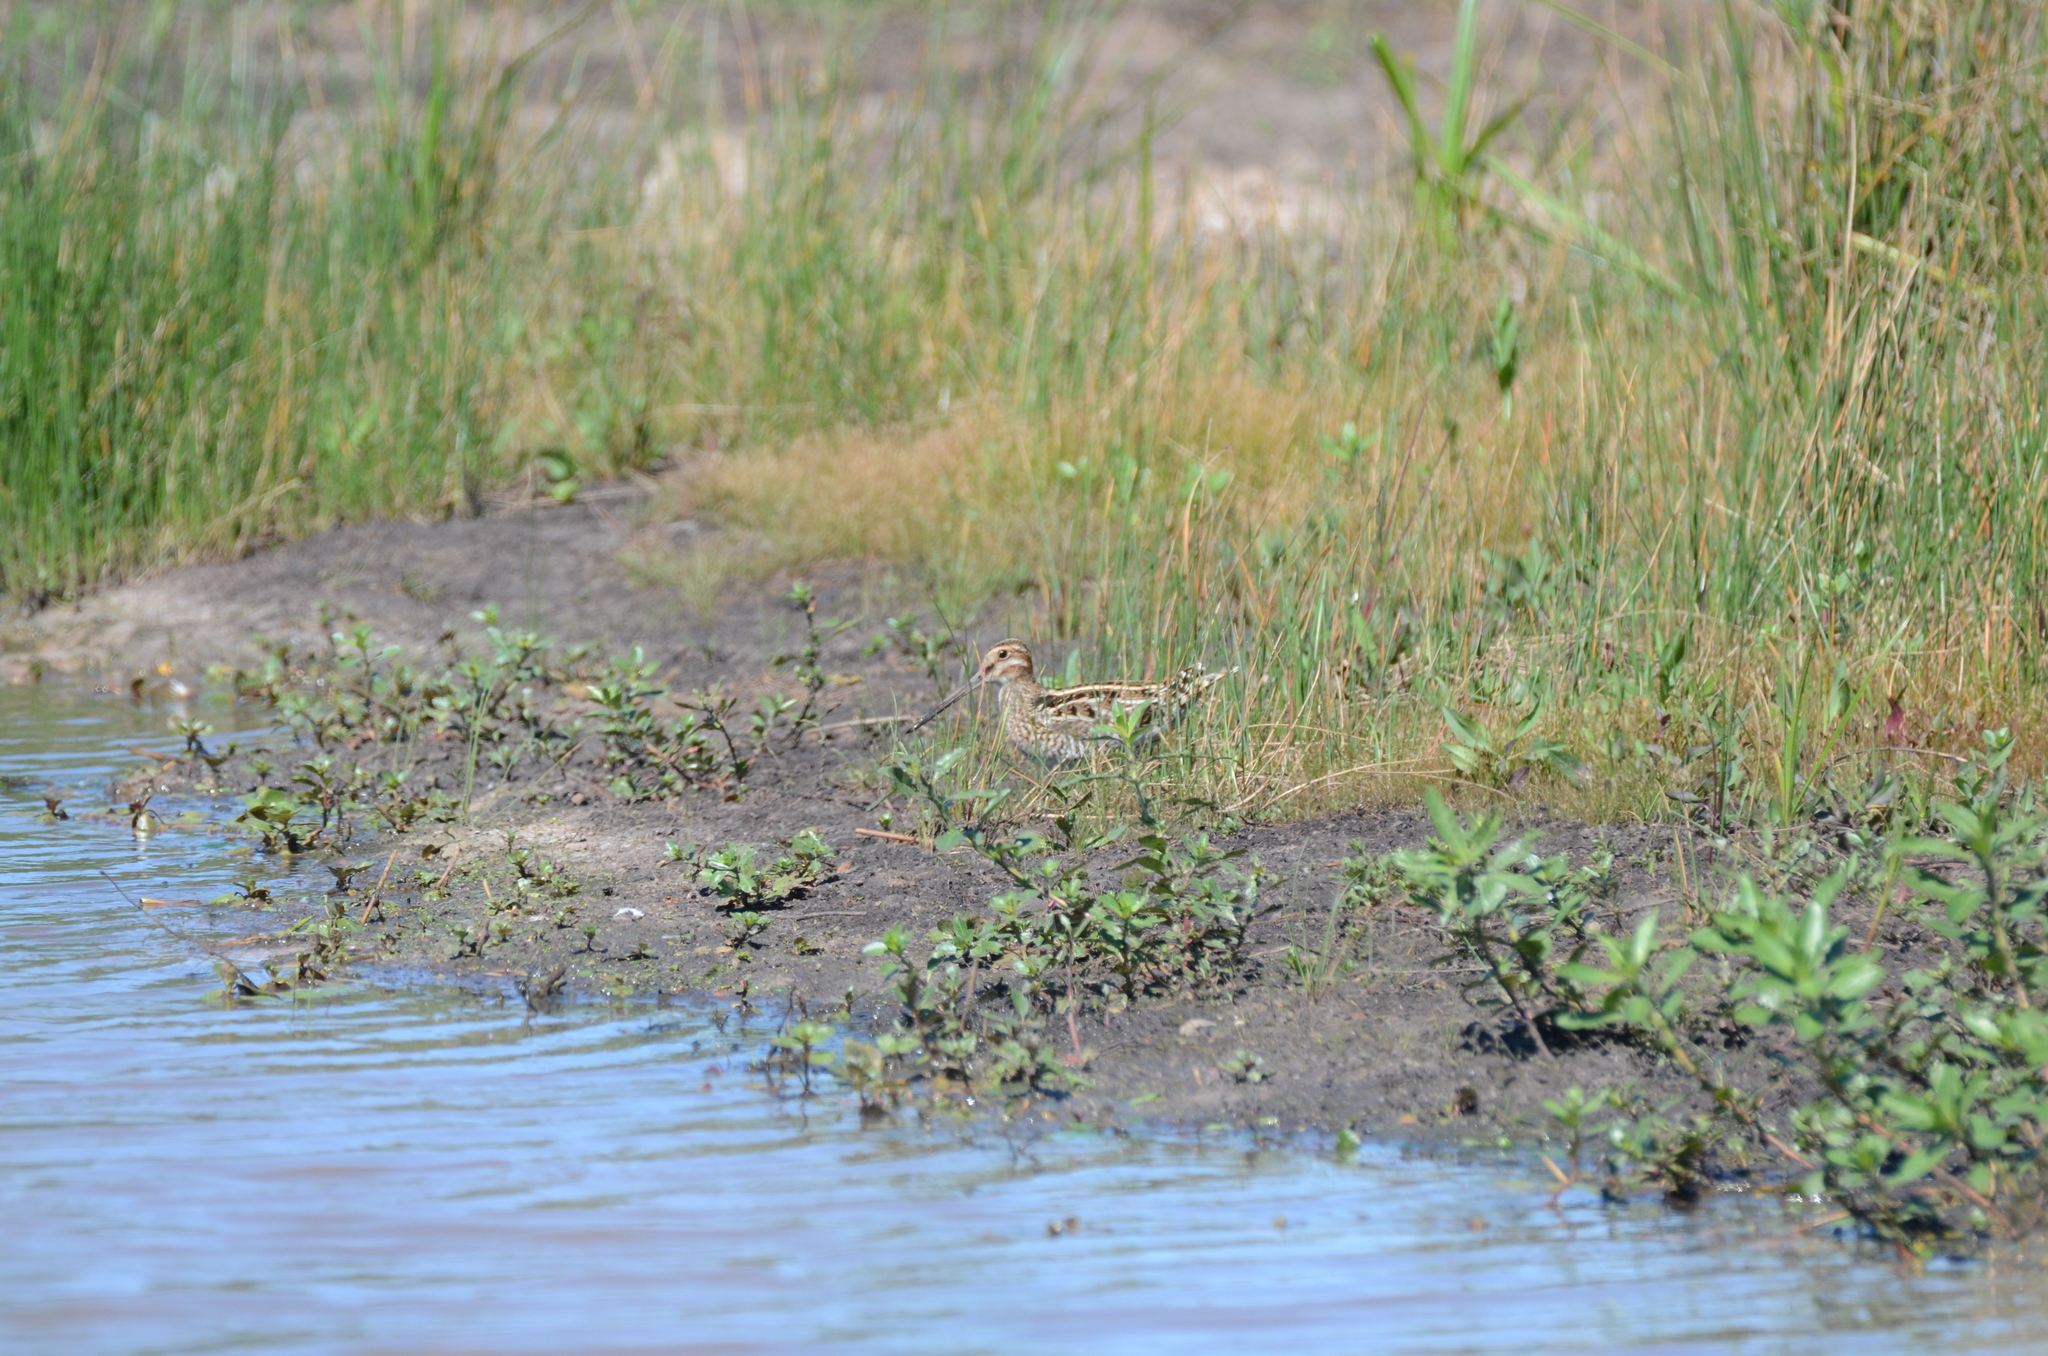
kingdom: Animalia
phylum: Chordata
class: Aves
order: Charadriiformes
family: Scolopacidae
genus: Gallinago
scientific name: Gallinago delicata
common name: Wilson's snipe
